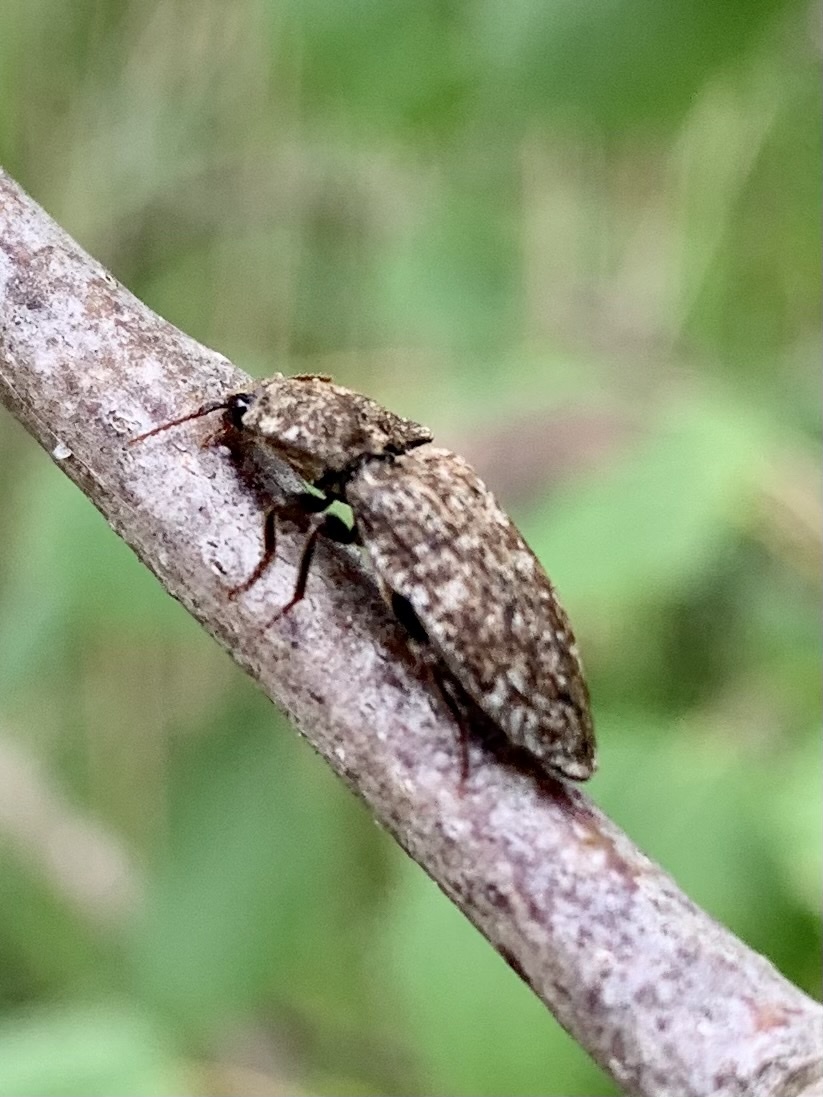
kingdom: Animalia
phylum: Arthropoda
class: Insecta
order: Coleoptera
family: Elateridae
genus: Agrypnus
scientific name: Agrypnus murinus
